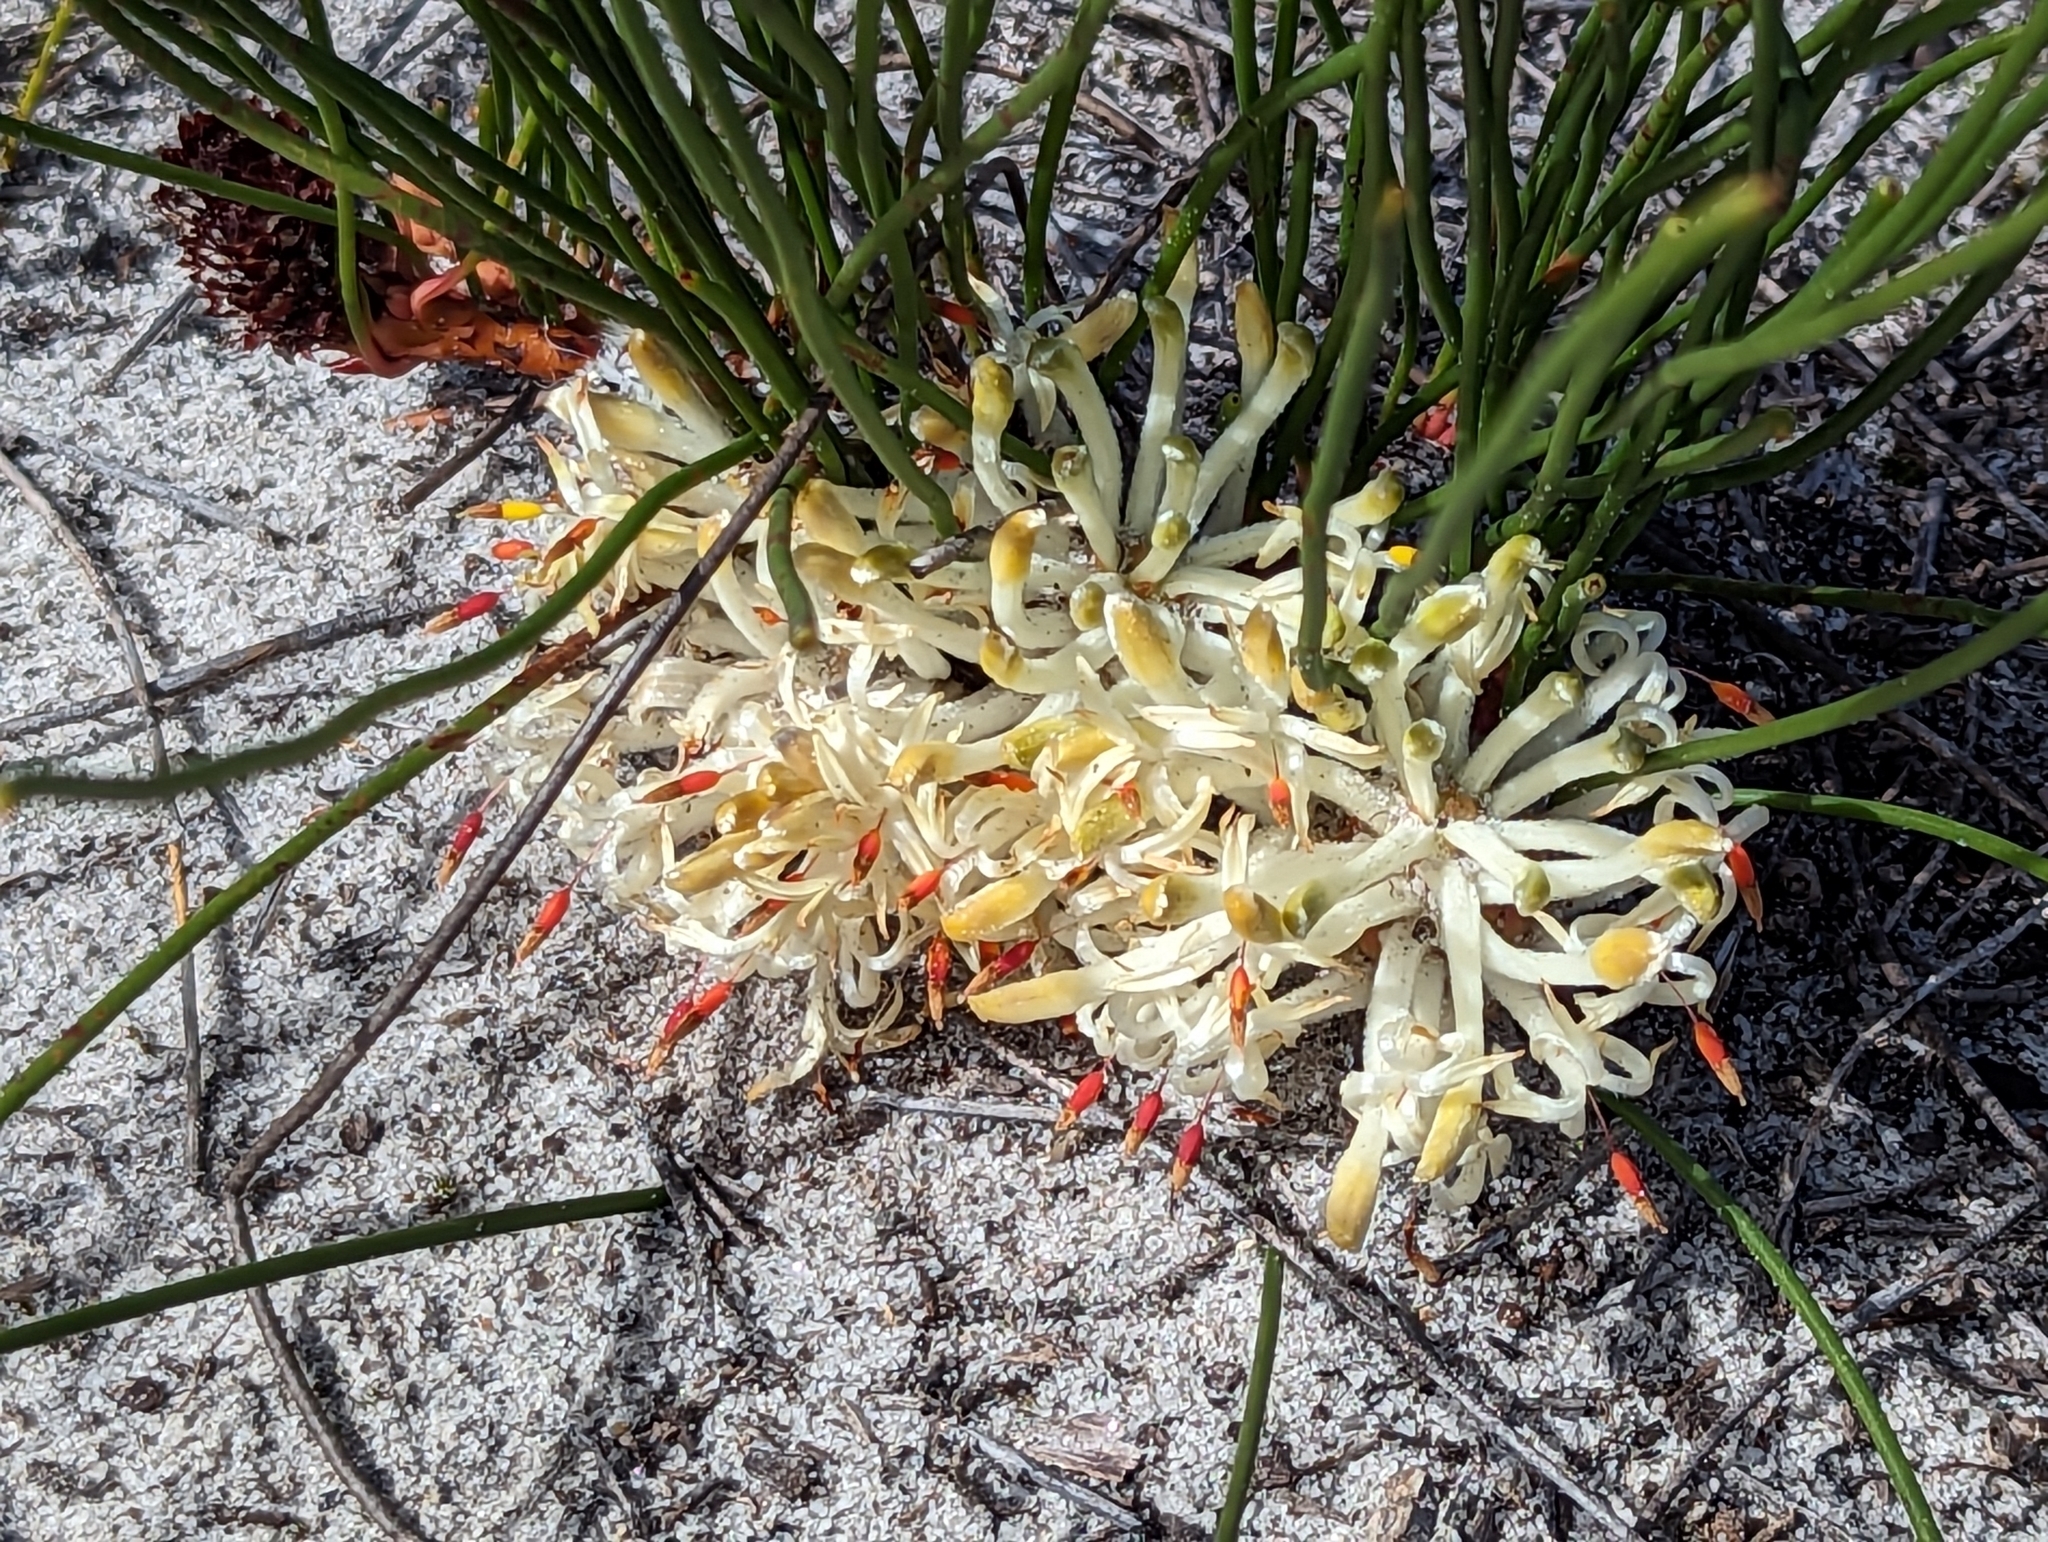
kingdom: Plantae
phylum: Tracheophyta
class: Magnoliopsida
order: Proteales
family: Proteaceae
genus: Petrophile
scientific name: Petrophile prostrata
